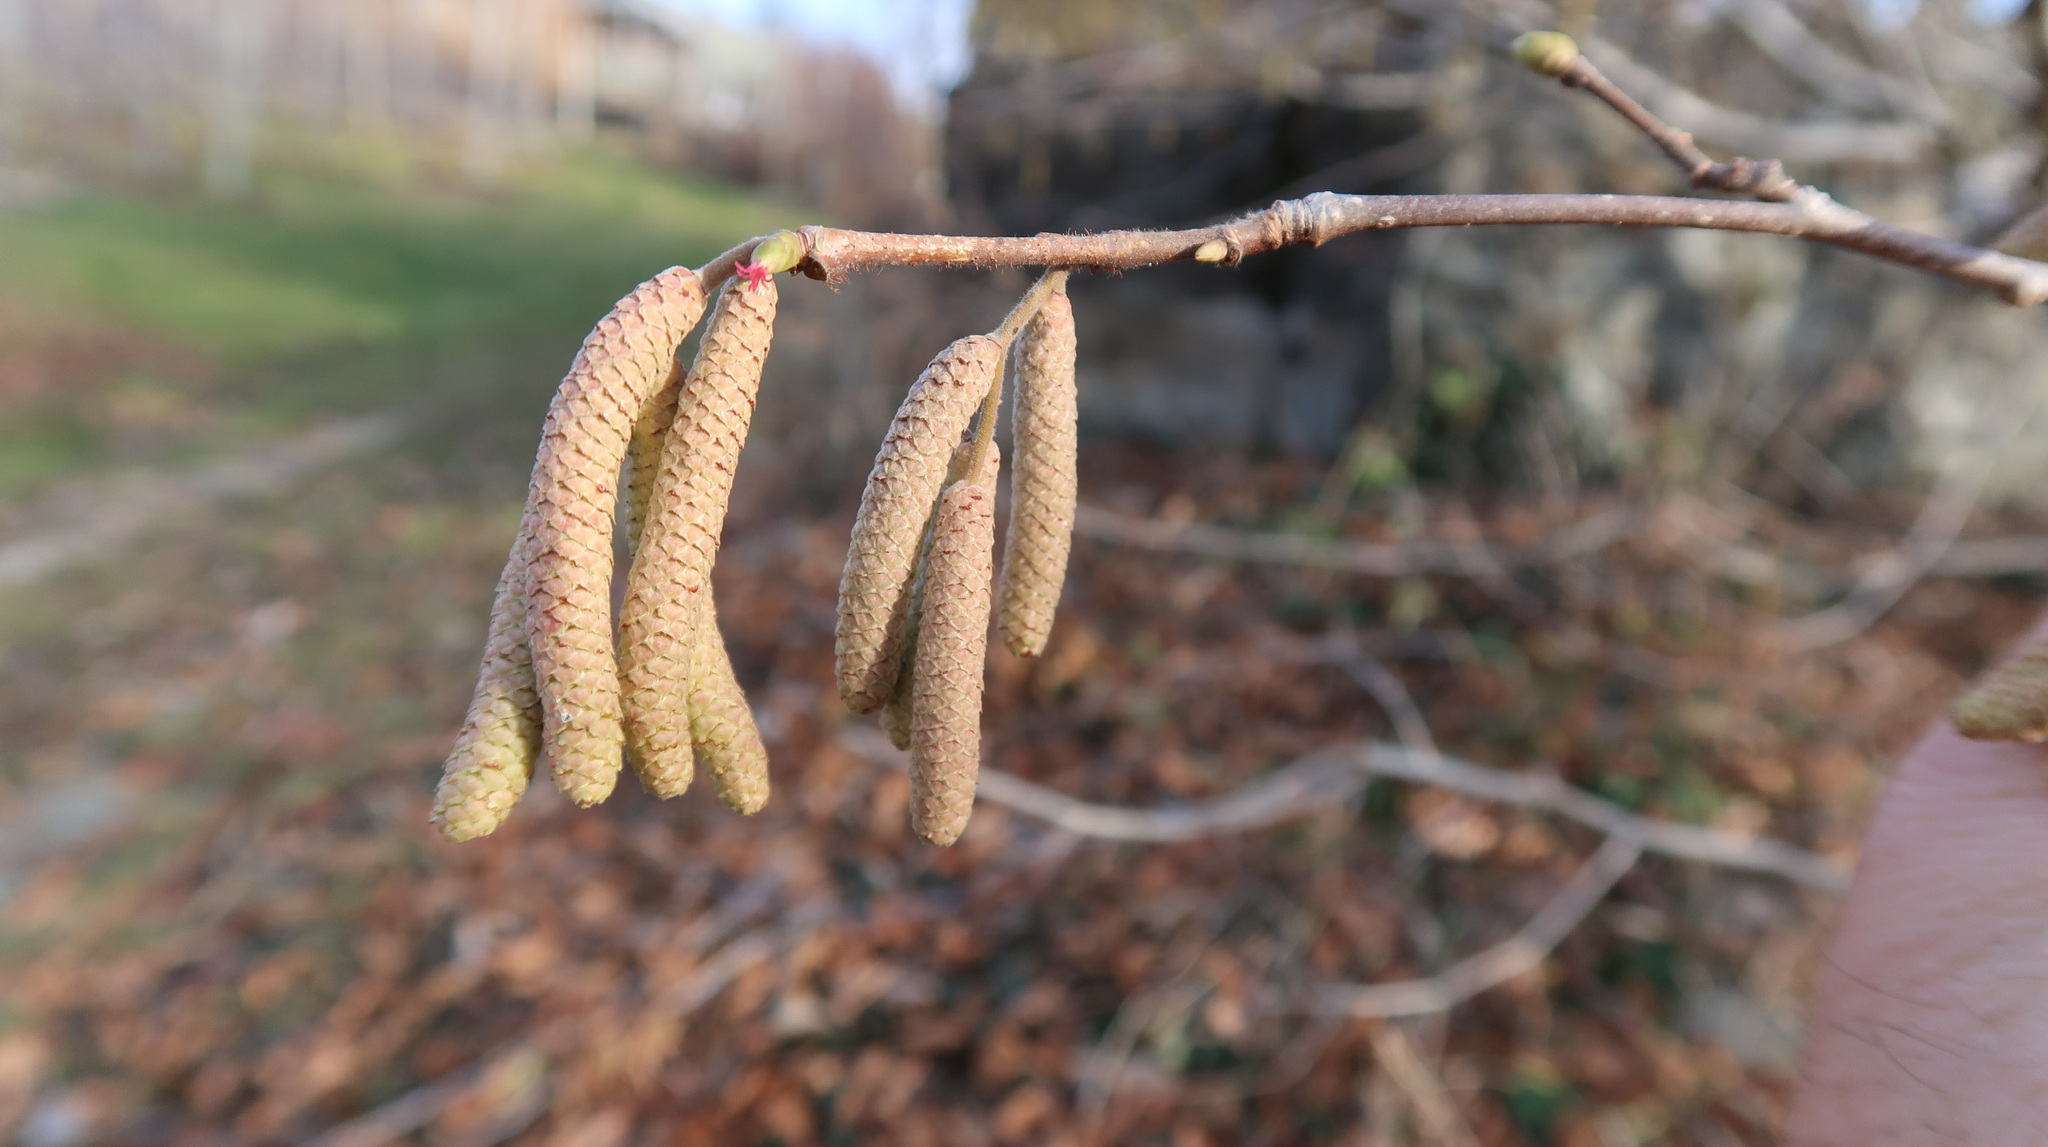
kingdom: Plantae
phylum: Tracheophyta
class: Magnoliopsida
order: Fagales
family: Betulaceae
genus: Corylus
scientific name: Corylus avellana
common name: European hazel
